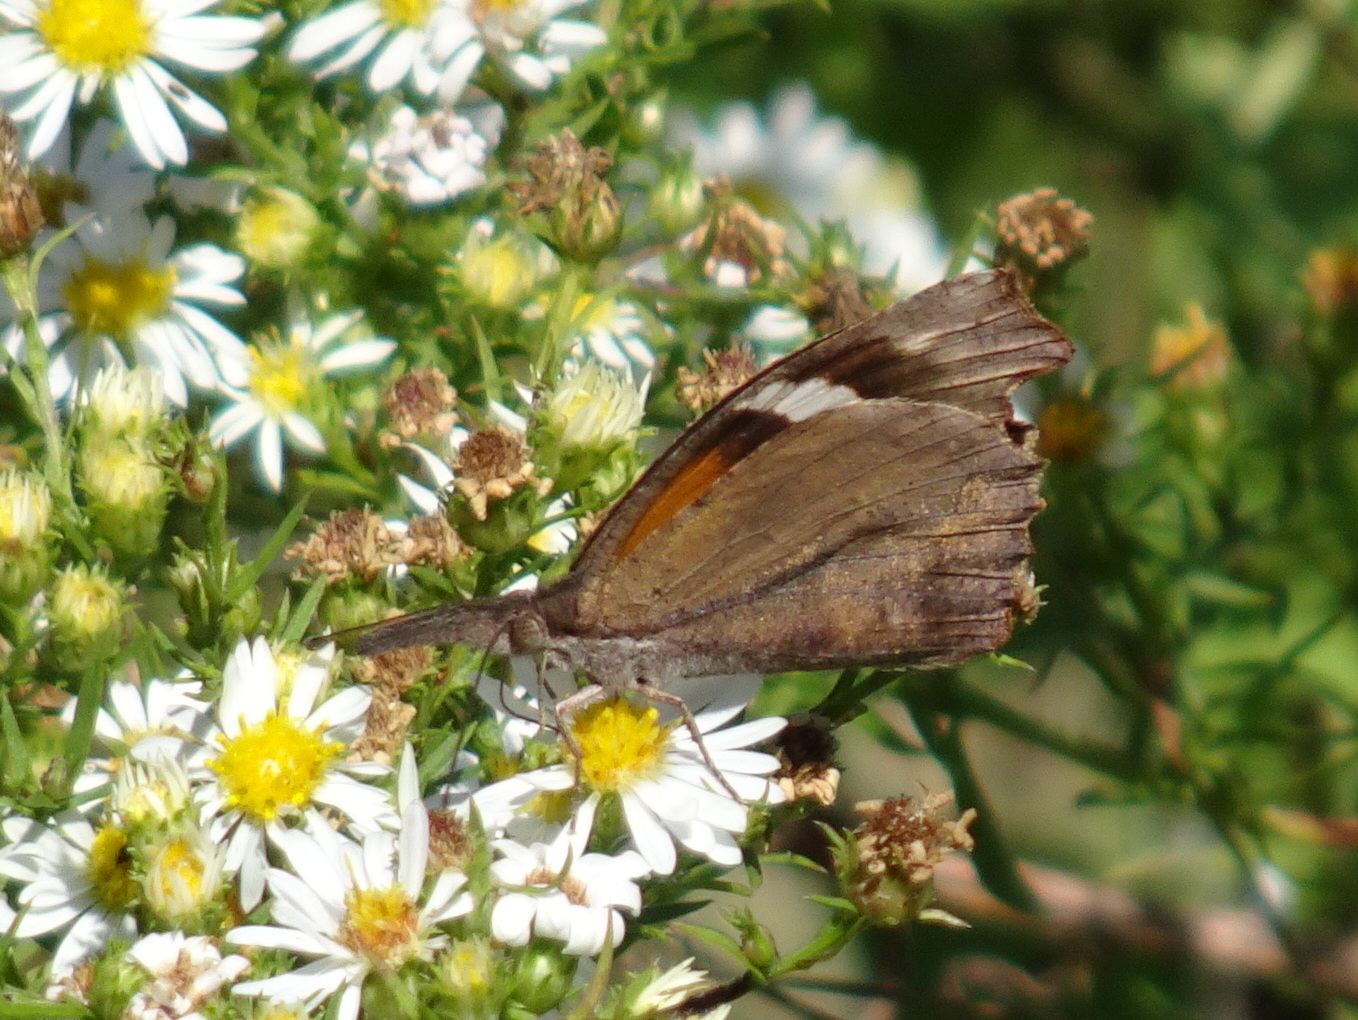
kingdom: Animalia
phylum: Arthropoda
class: Insecta
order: Lepidoptera
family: Nymphalidae
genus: Libytheana
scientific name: Libytheana carinenta
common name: American snout
